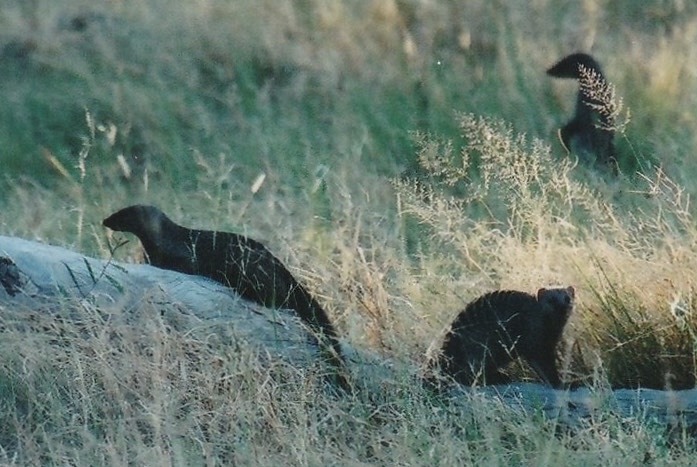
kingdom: Animalia
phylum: Chordata
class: Mammalia
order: Carnivora
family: Herpestidae
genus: Mungos
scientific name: Mungos mungo
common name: Banded mongoose
